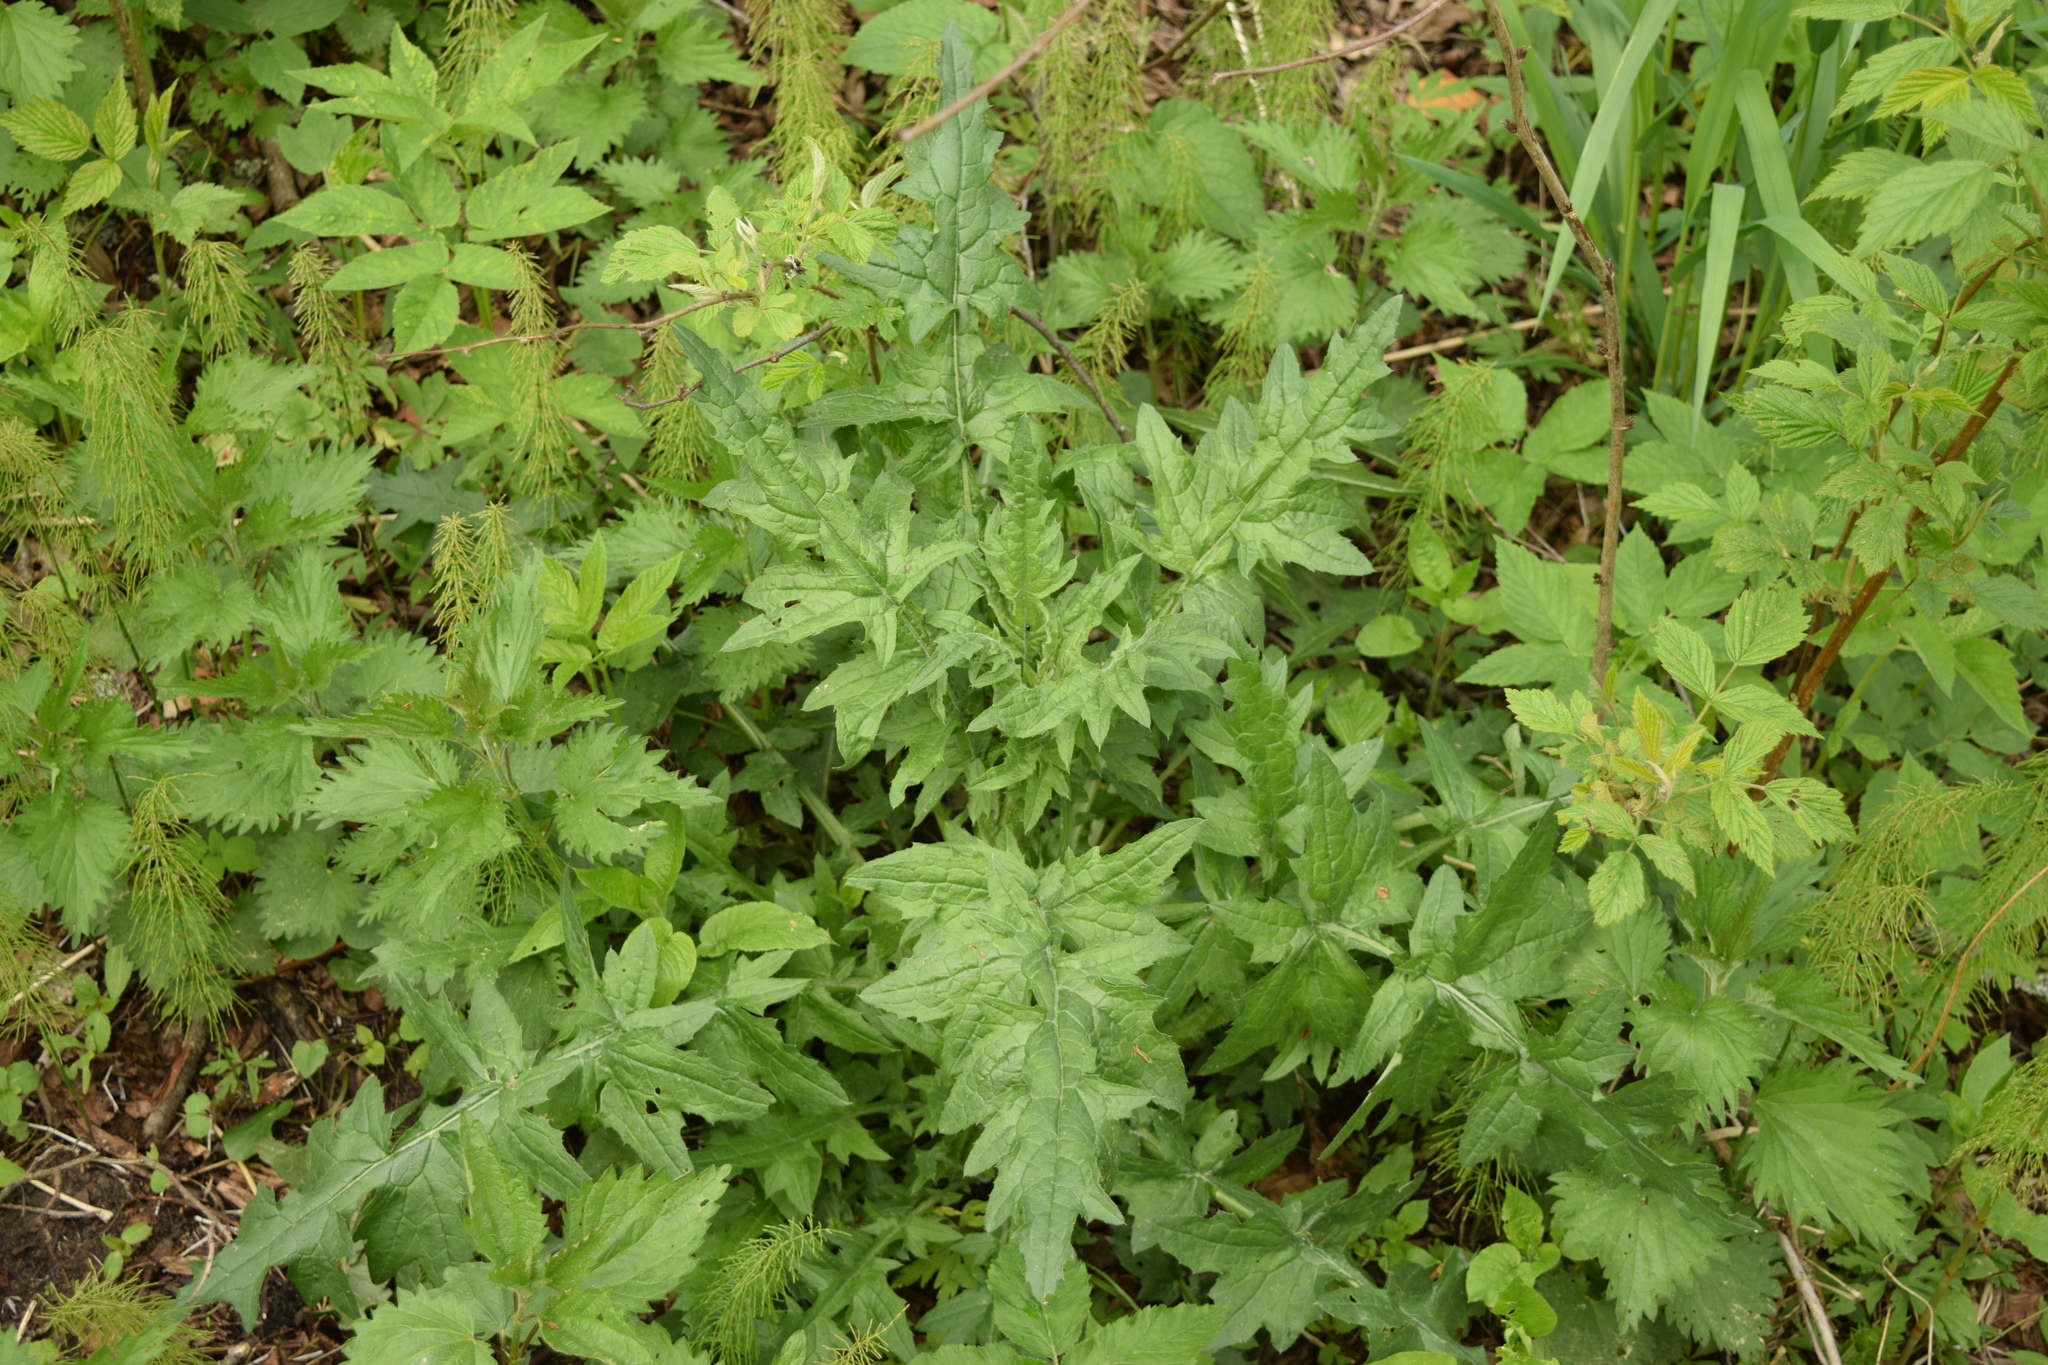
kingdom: Plantae
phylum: Tracheophyta
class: Magnoliopsida
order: Asterales
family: Asteraceae
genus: Carduus
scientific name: Carduus crispus
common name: Welted thistle
